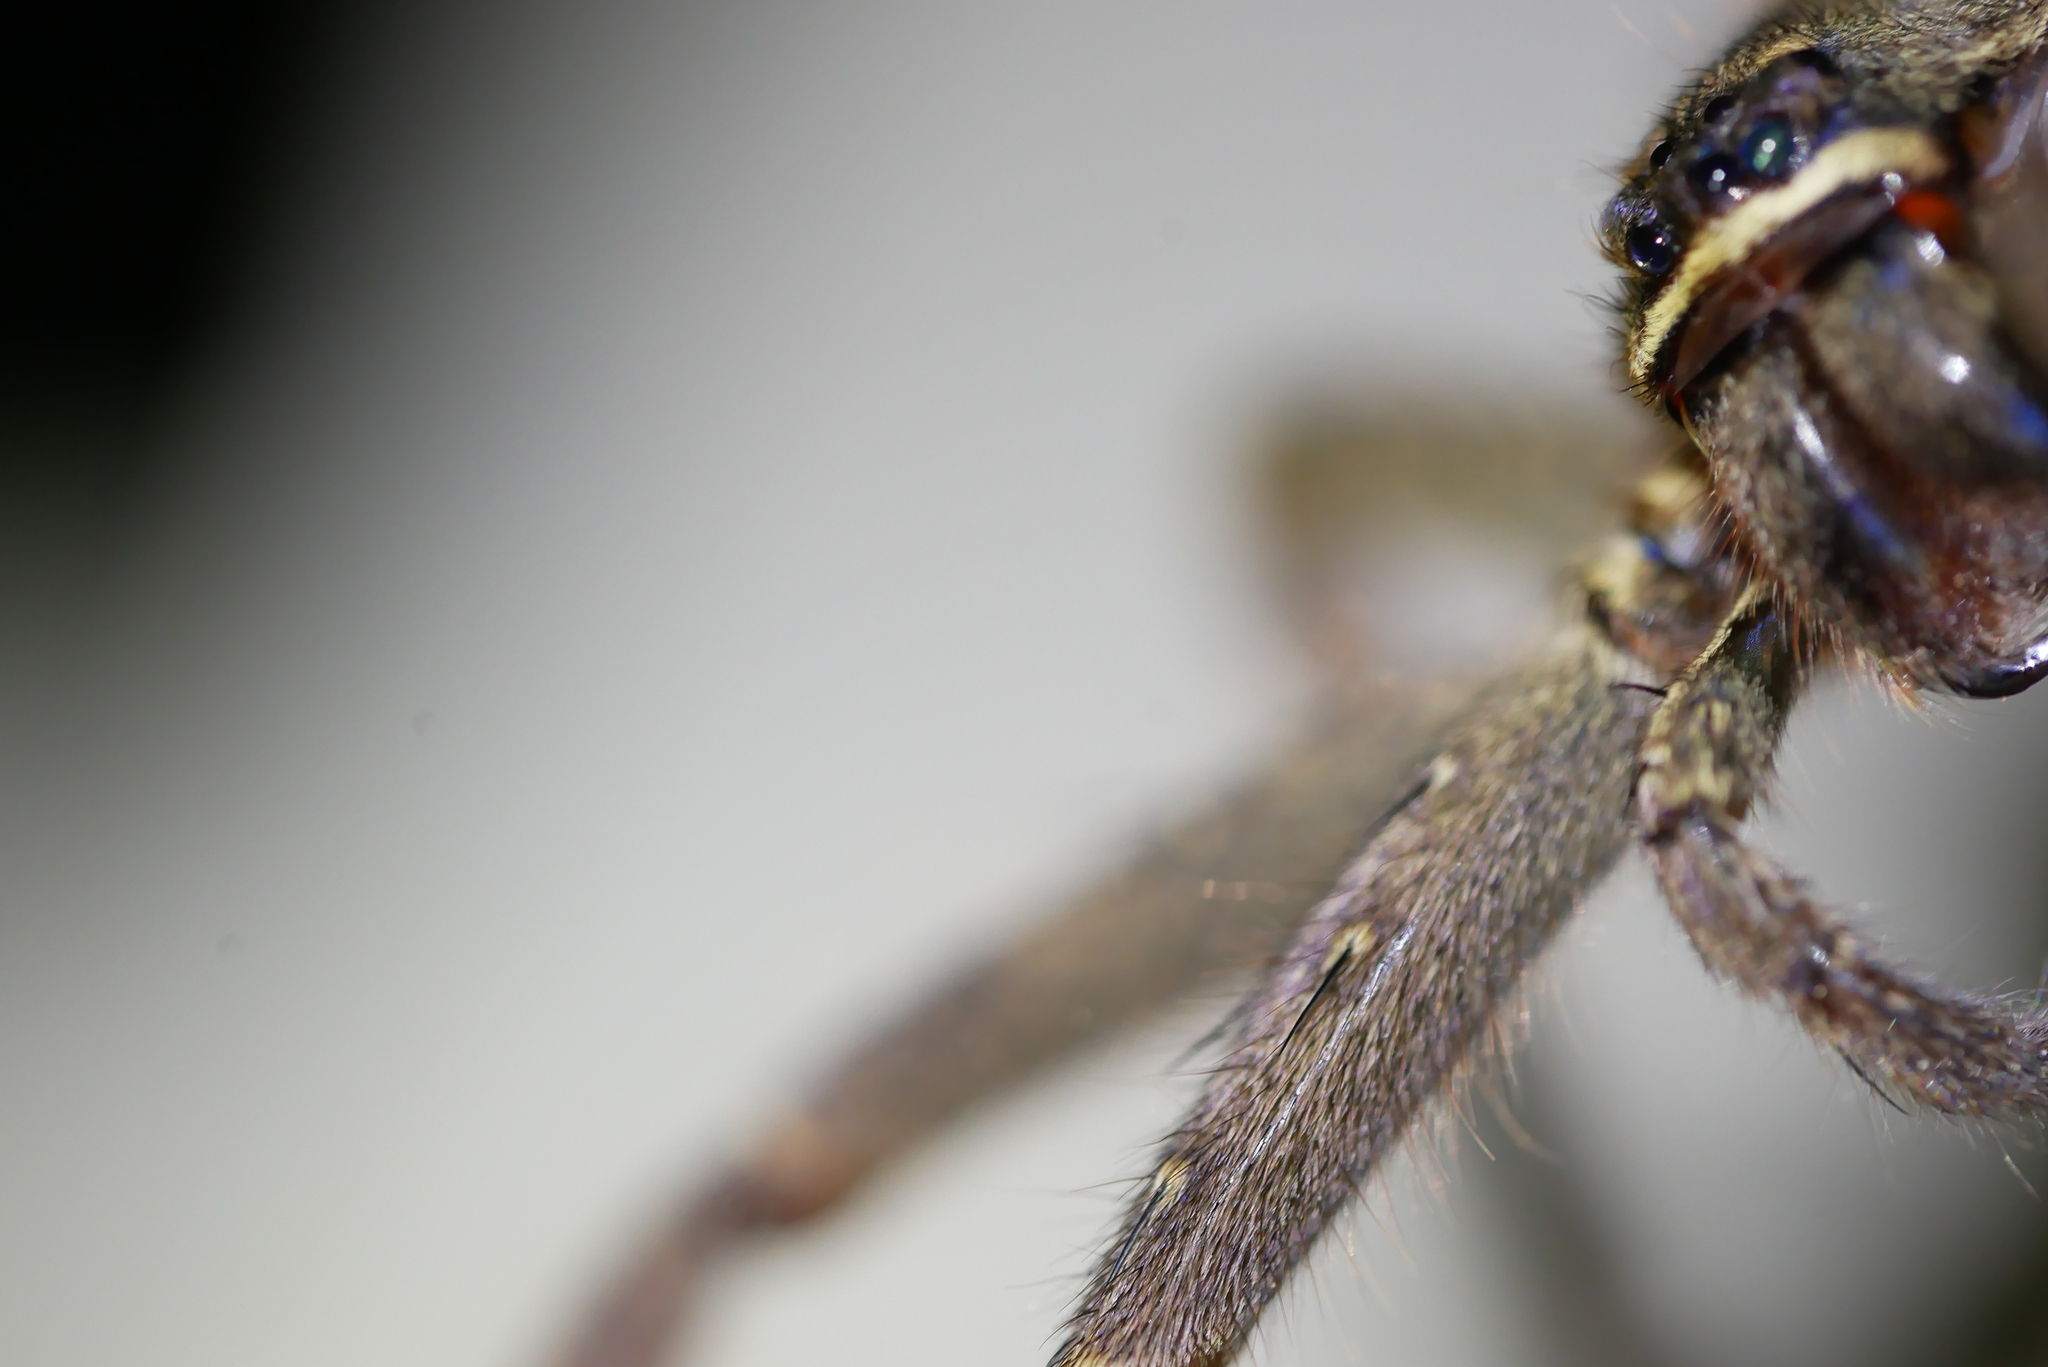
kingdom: Animalia
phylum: Arthropoda
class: Arachnida
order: Araneae
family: Sparassidae
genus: Heteropoda
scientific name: Heteropoda venatoria
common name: Huntsman spider
